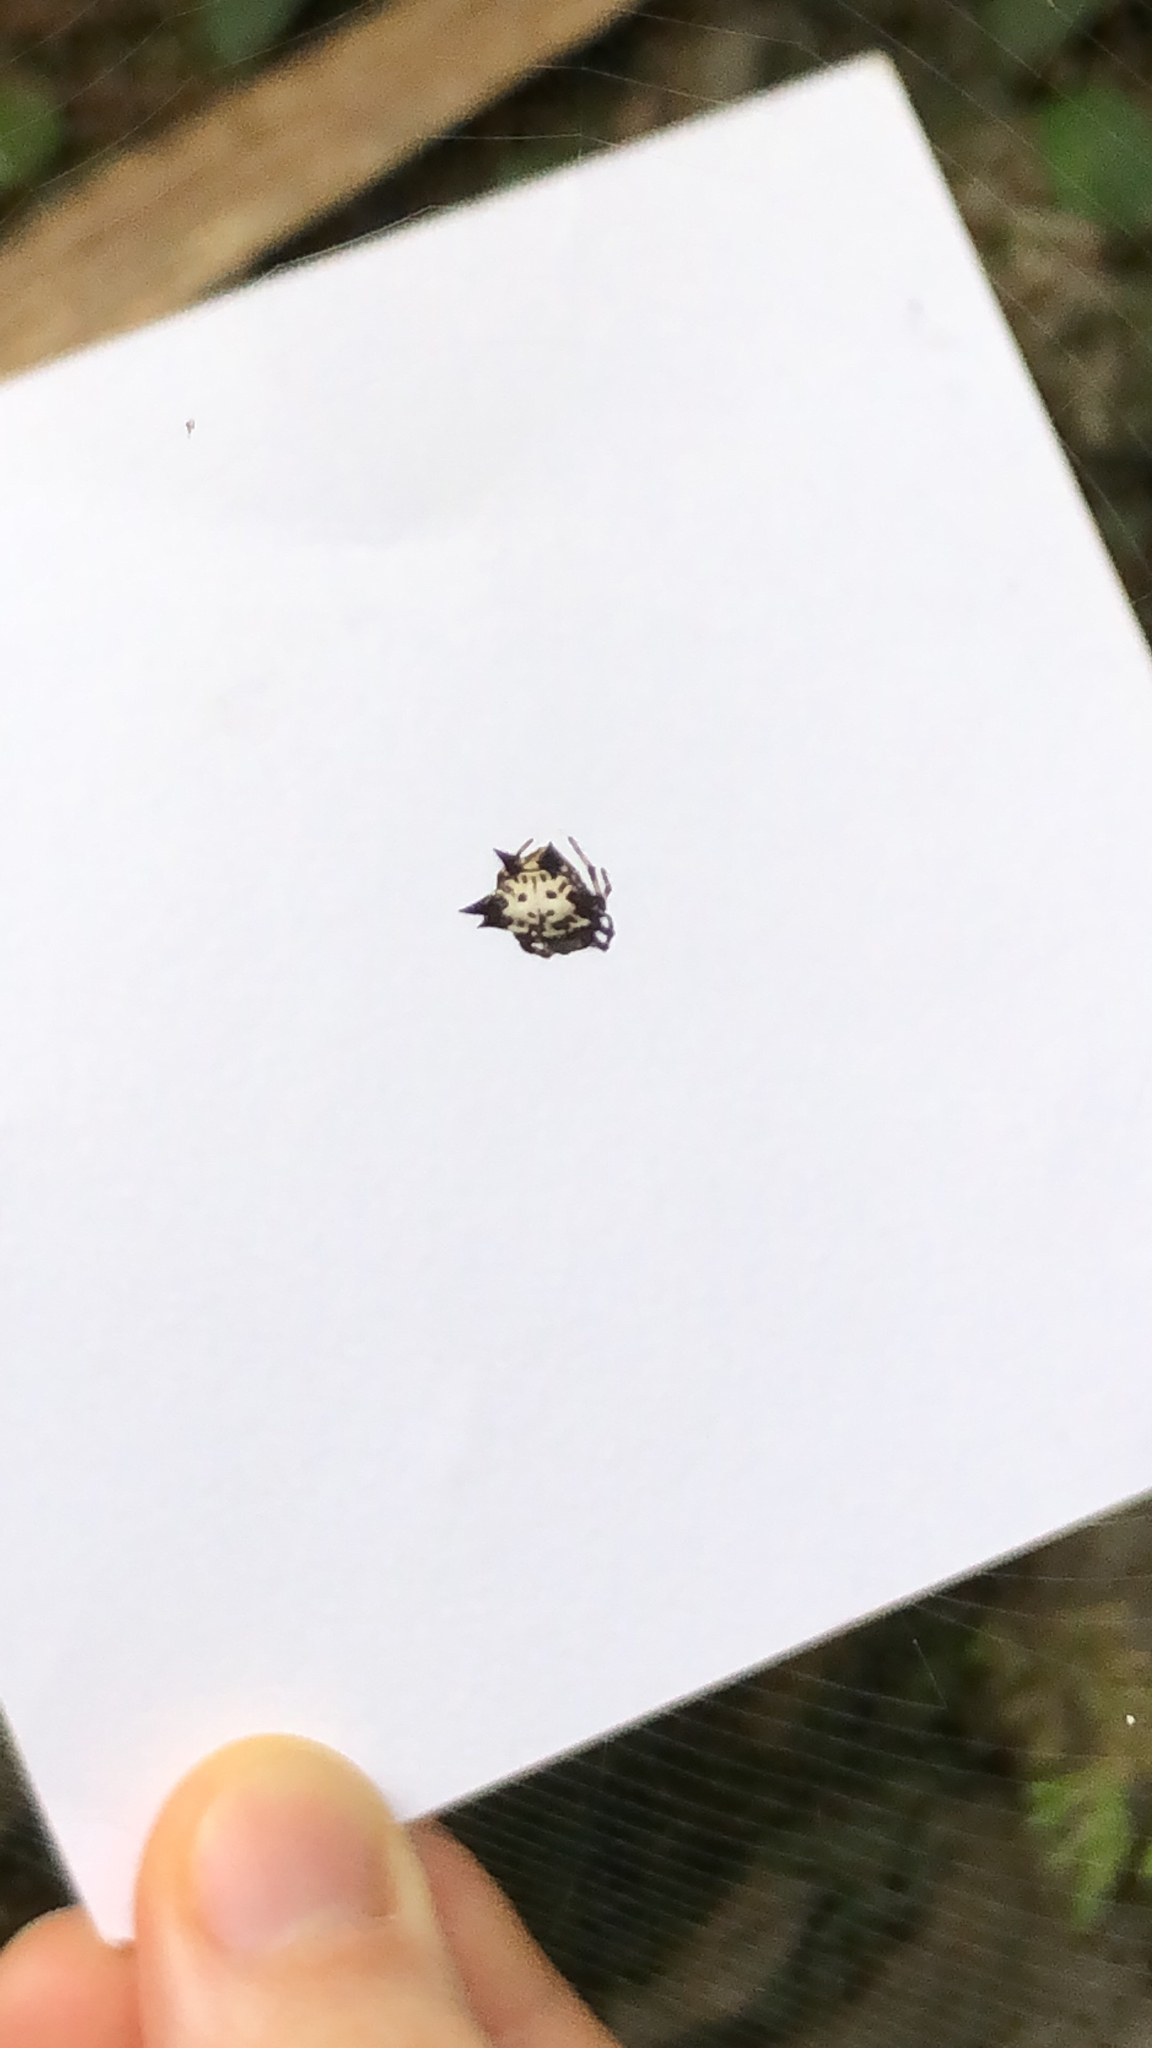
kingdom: Animalia
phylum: Arthropoda
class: Arachnida
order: Araneae
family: Araneidae
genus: Gasteracantha
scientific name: Gasteracantha kuhli
